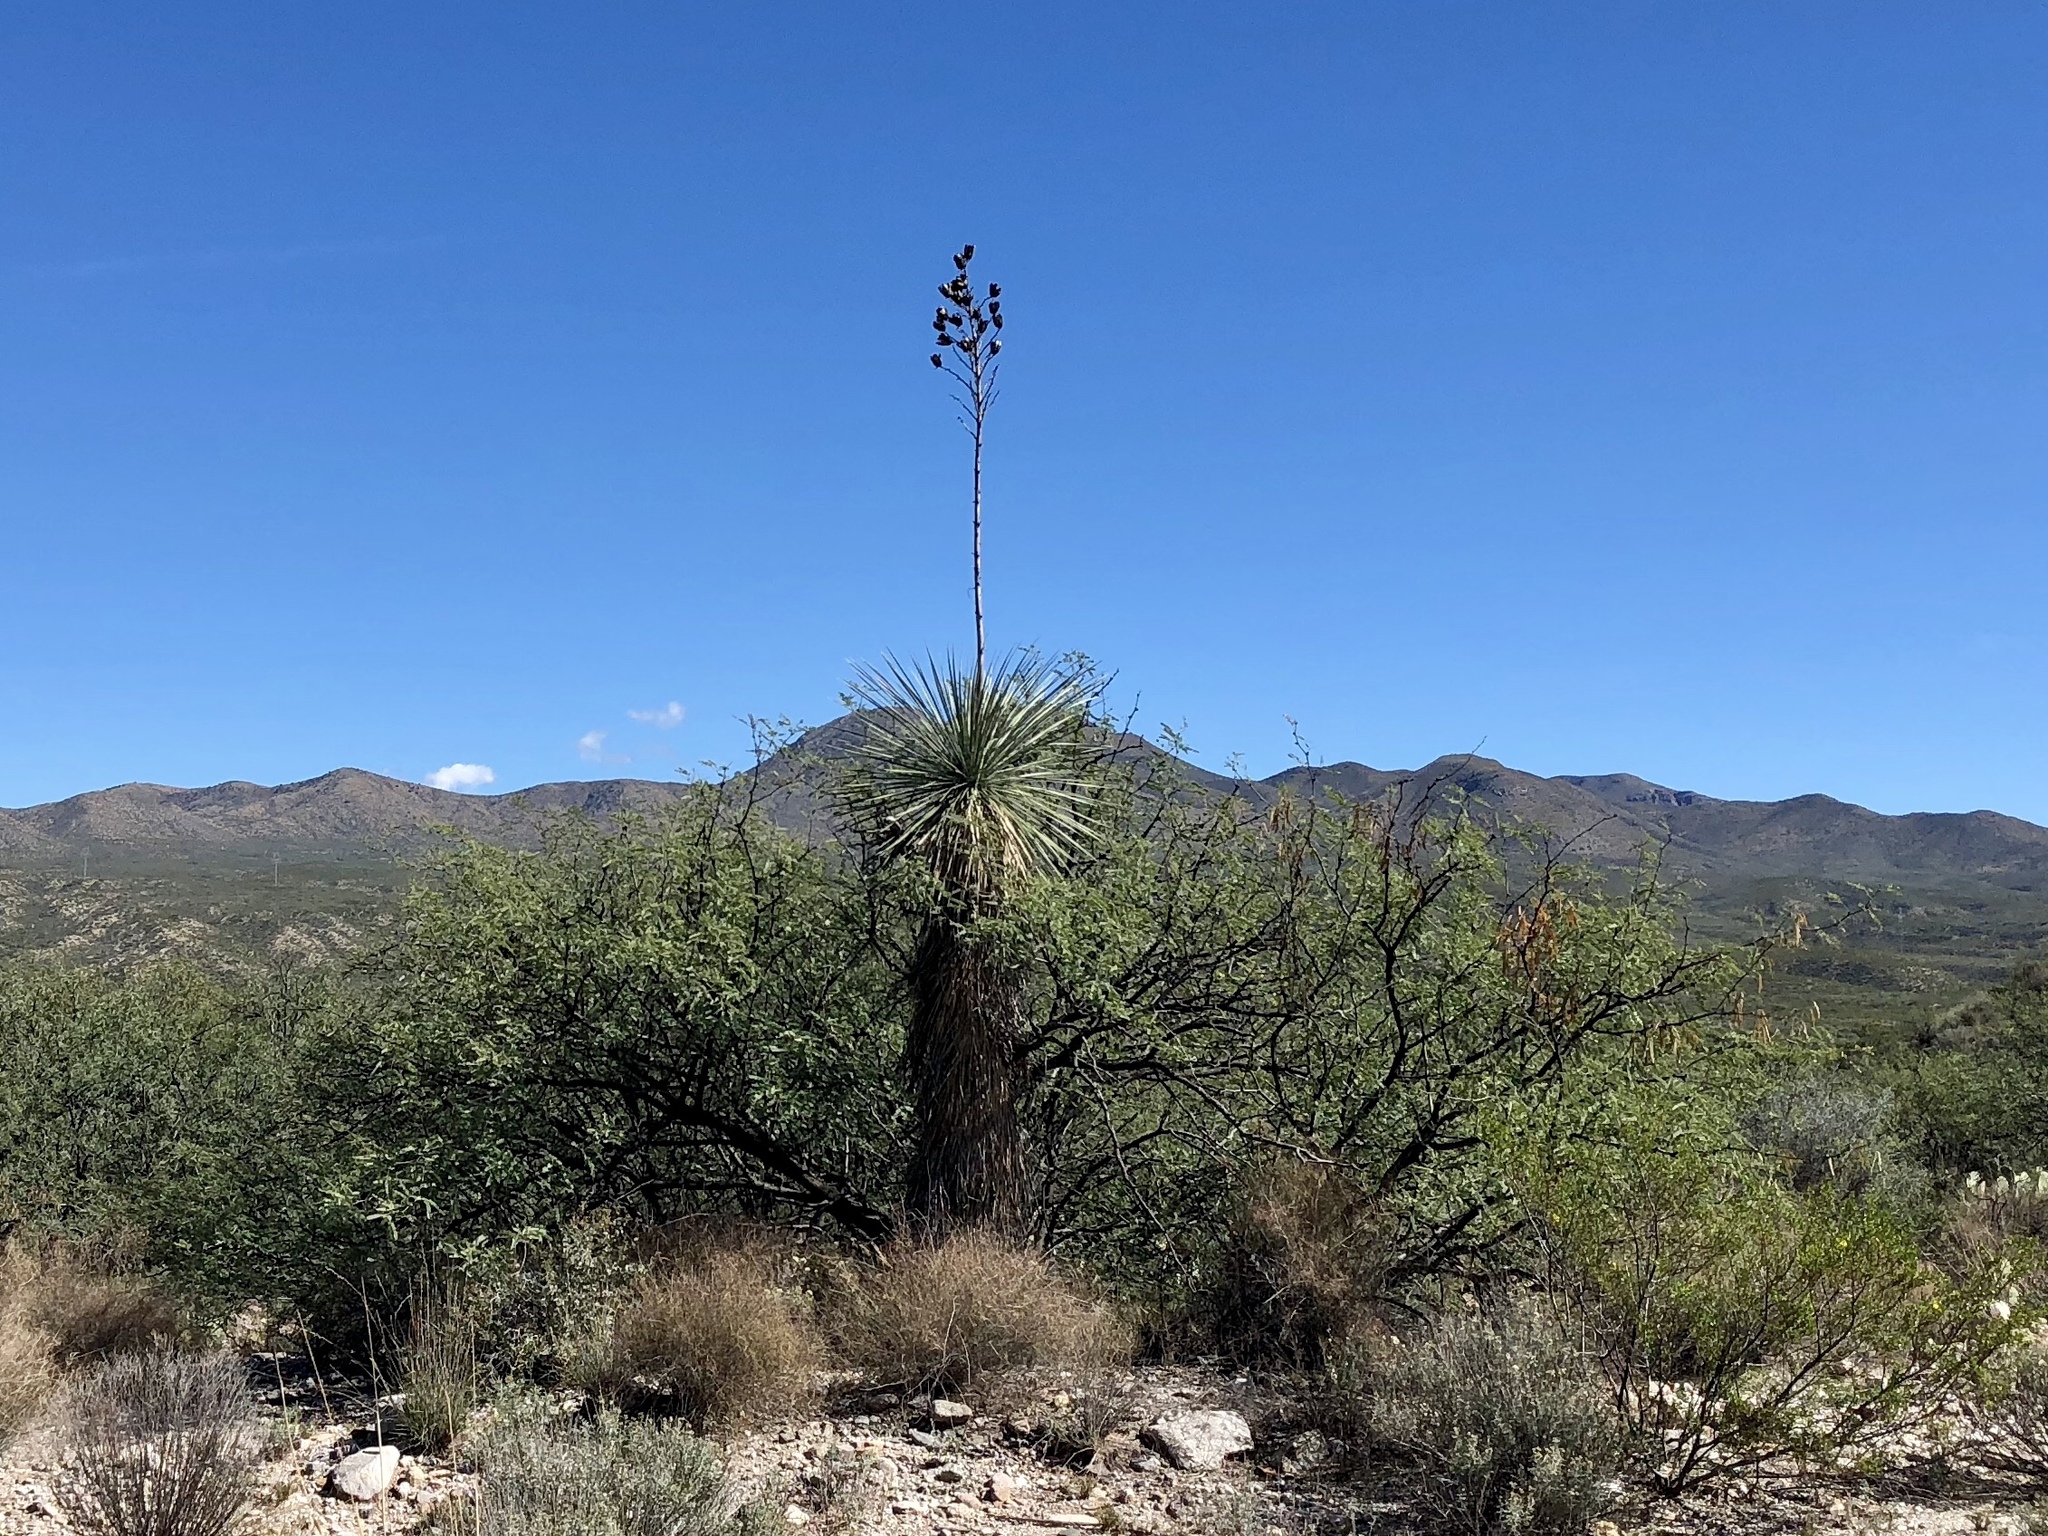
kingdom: Plantae
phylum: Tracheophyta
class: Liliopsida
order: Asparagales
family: Asparagaceae
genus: Yucca
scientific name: Yucca elata
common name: Palmella
